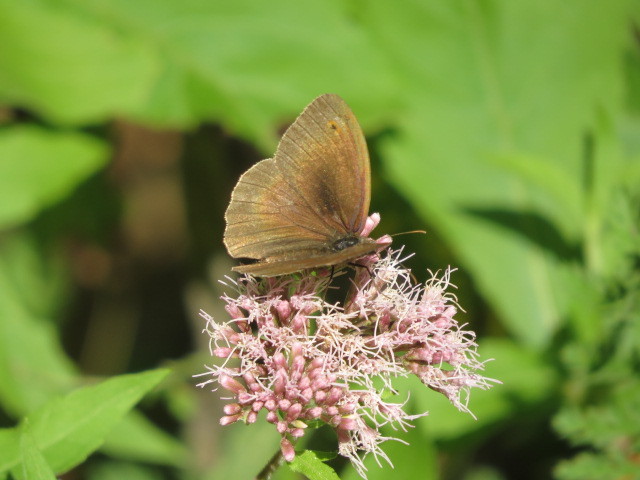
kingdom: Animalia
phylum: Arthropoda
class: Insecta
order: Lepidoptera
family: Nymphalidae
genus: Maniola
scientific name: Maniola jurtina
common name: Meadow brown
